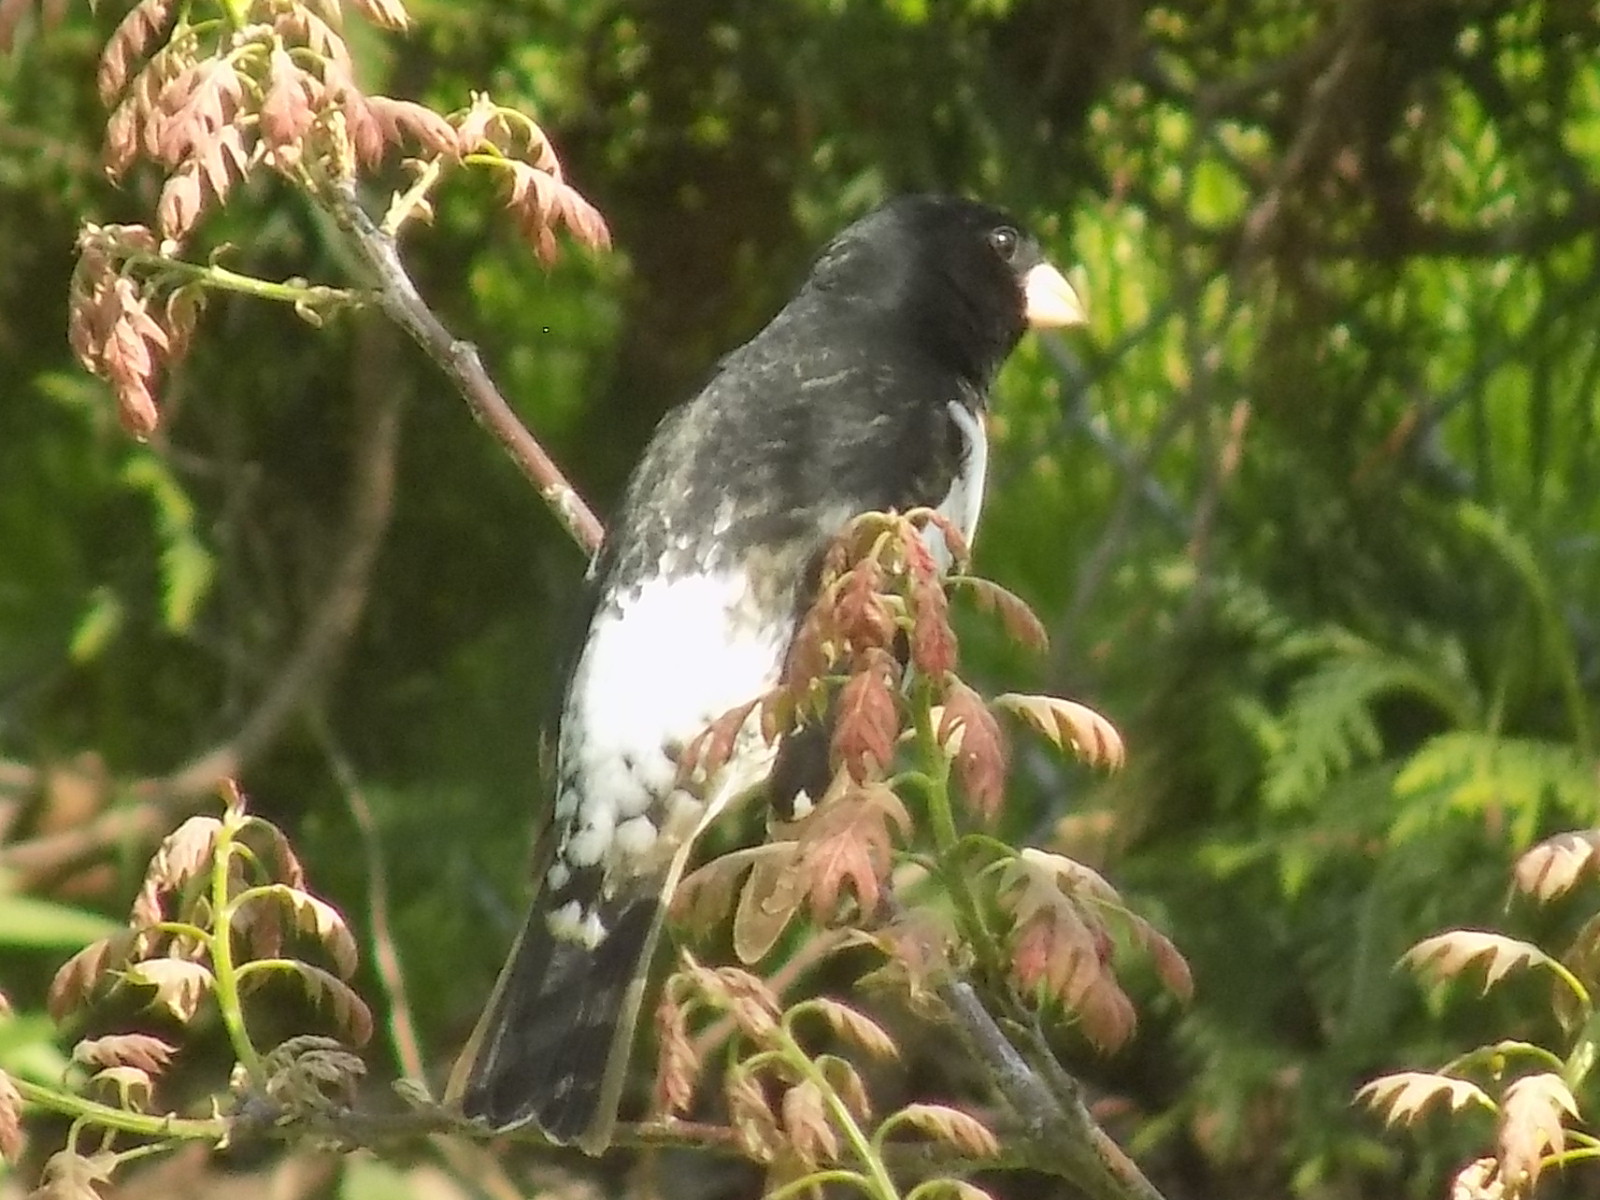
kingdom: Animalia
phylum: Chordata
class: Aves
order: Passeriformes
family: Cardinalidae
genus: Pheucticus
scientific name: Pheucticus ludovicianus
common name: Rose-breasted grosbeak
